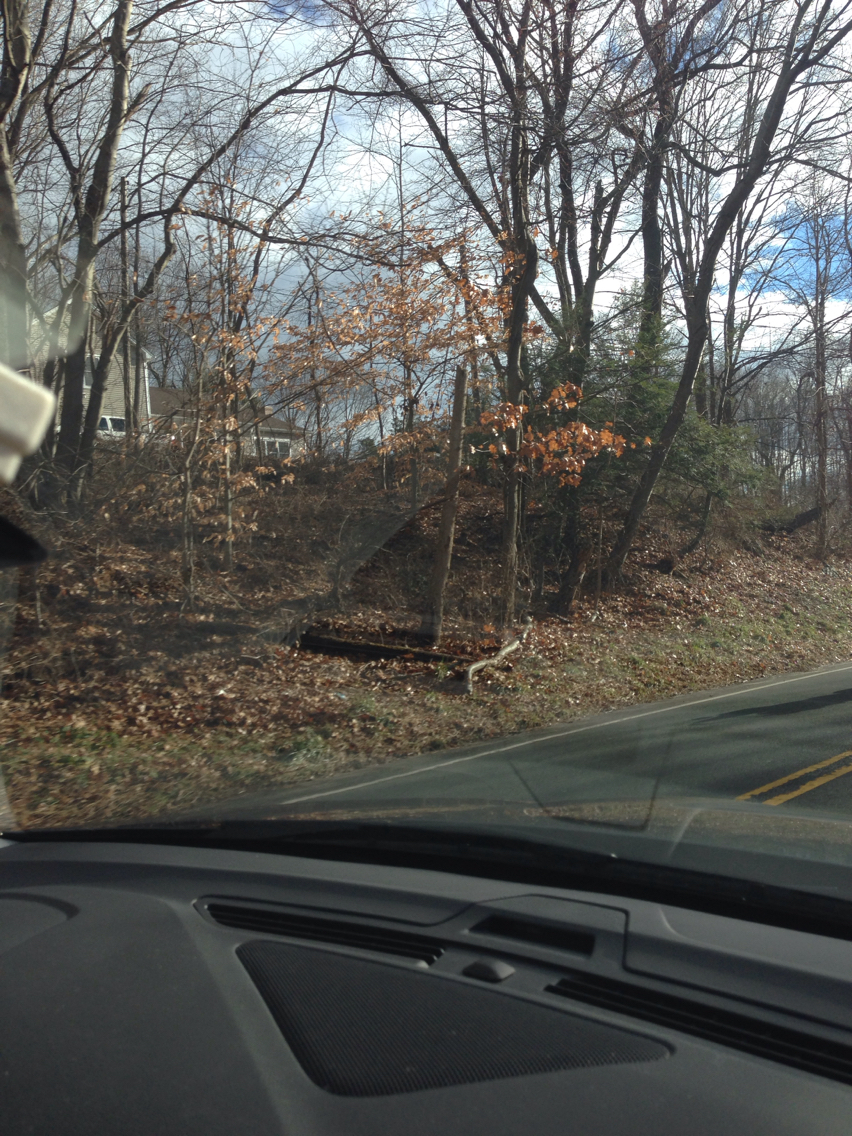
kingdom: Plantae
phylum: Tracheophyta
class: Magnoliopsida
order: Fagales
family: Fagaceae
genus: Fagus
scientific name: Fagus grandifolia
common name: American beech
